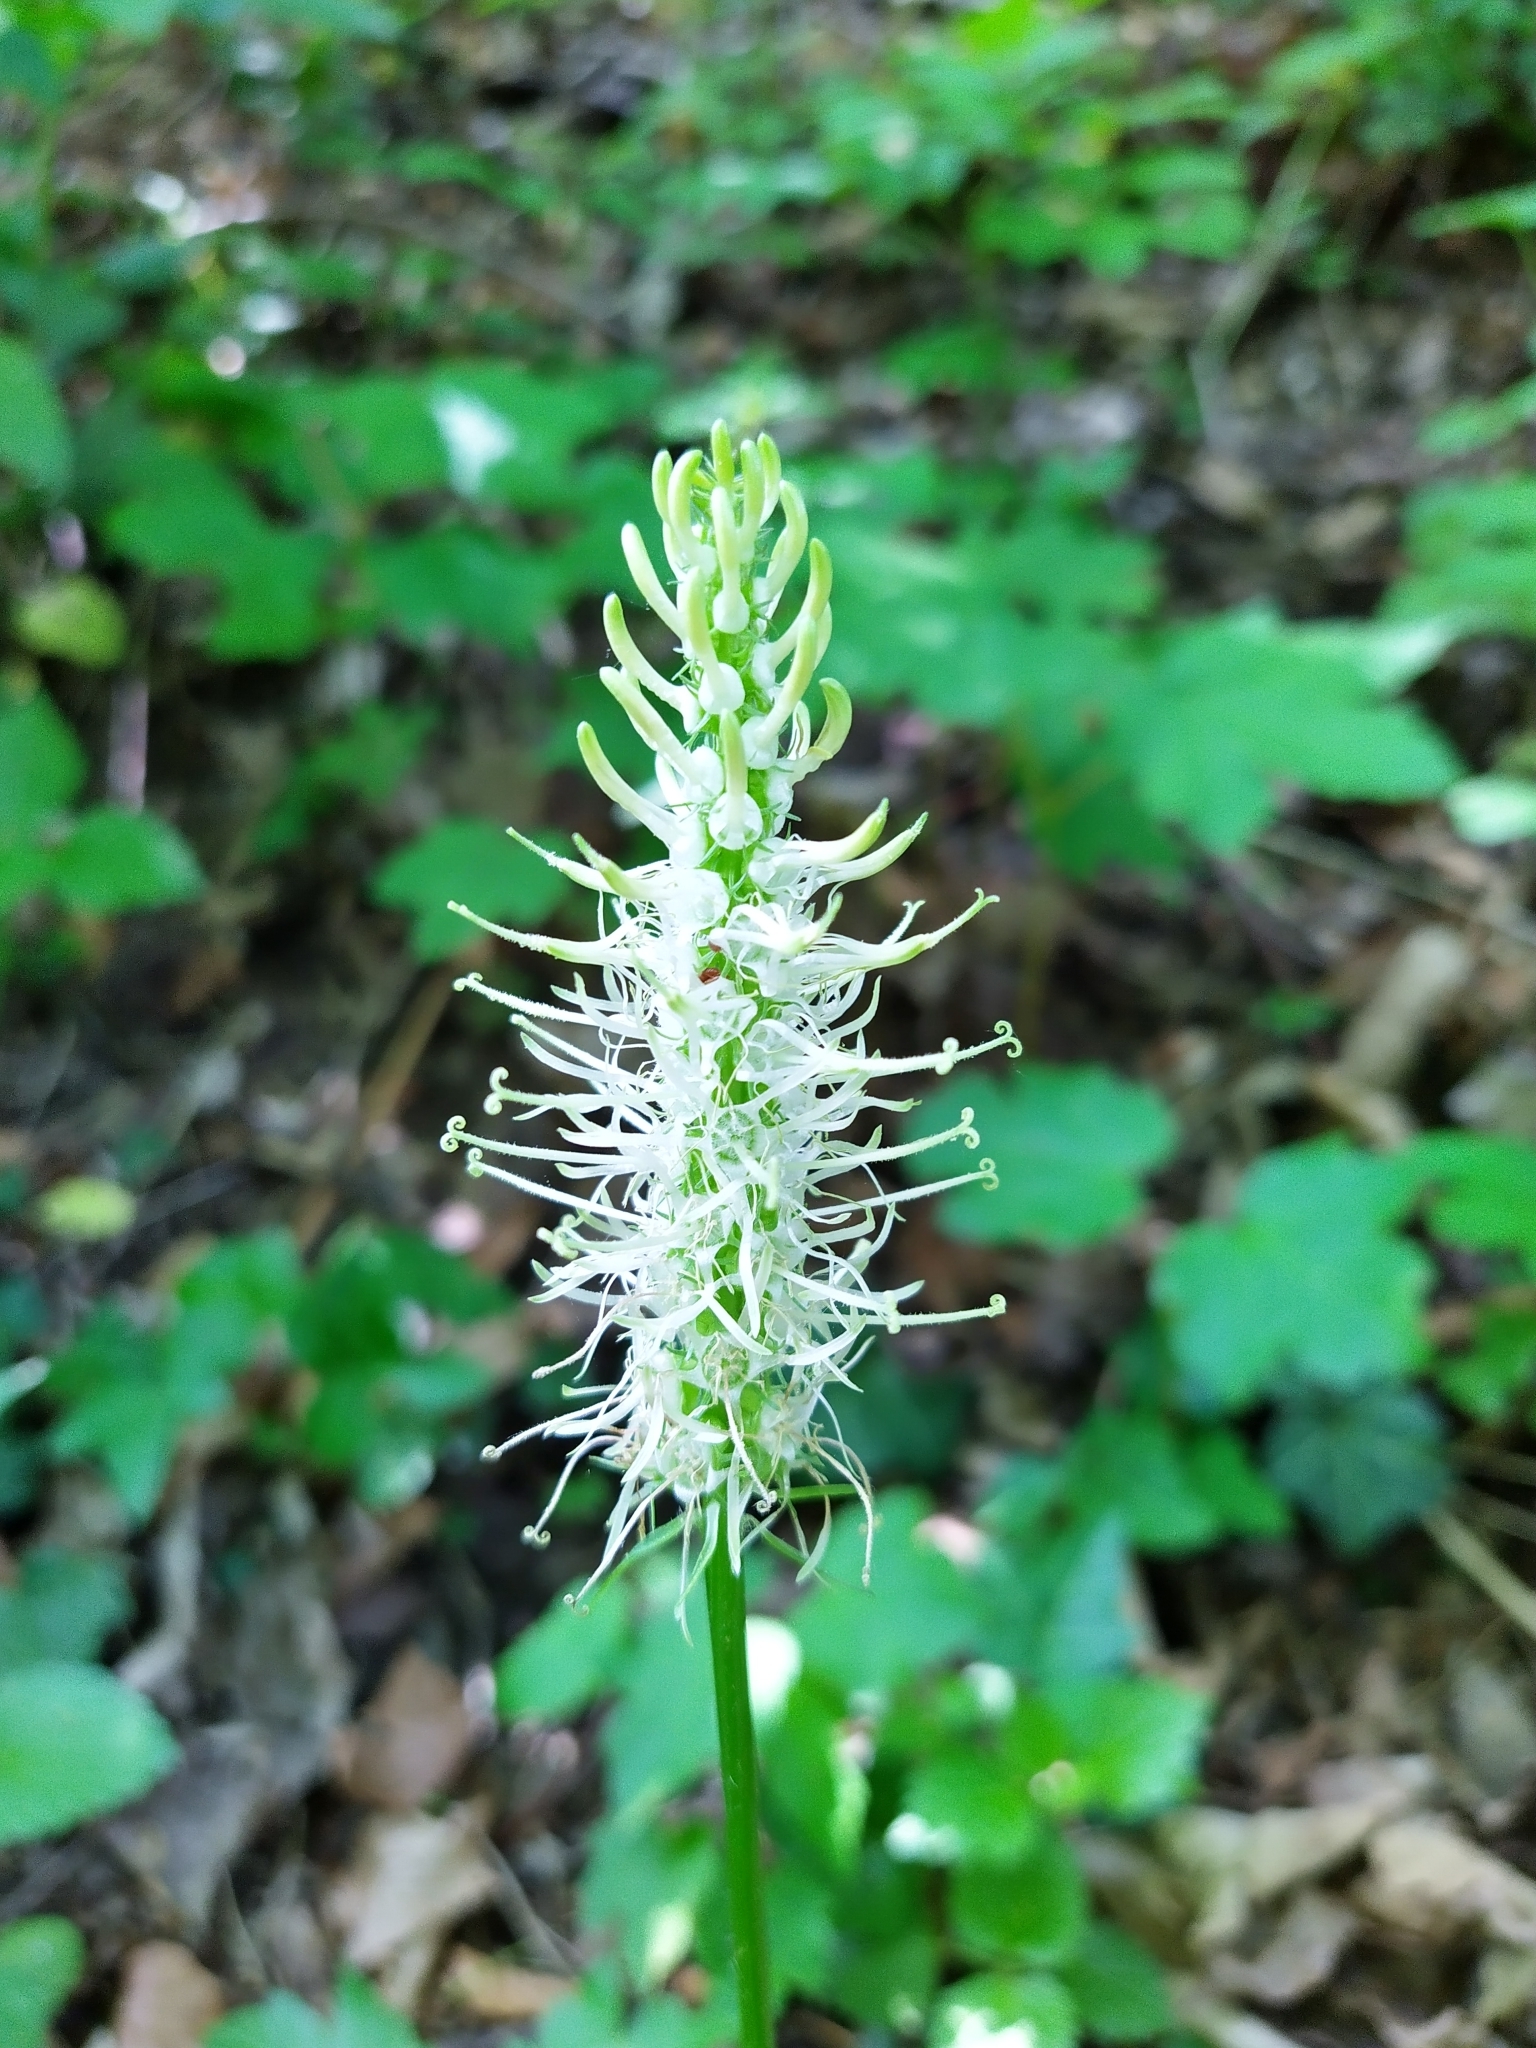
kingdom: Plantae
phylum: Tracheophyta
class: Magnoliopsida
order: Asterales
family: Campanulaceae
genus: Phyteuma
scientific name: Phyteuma spicatum
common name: Spiked rampion
